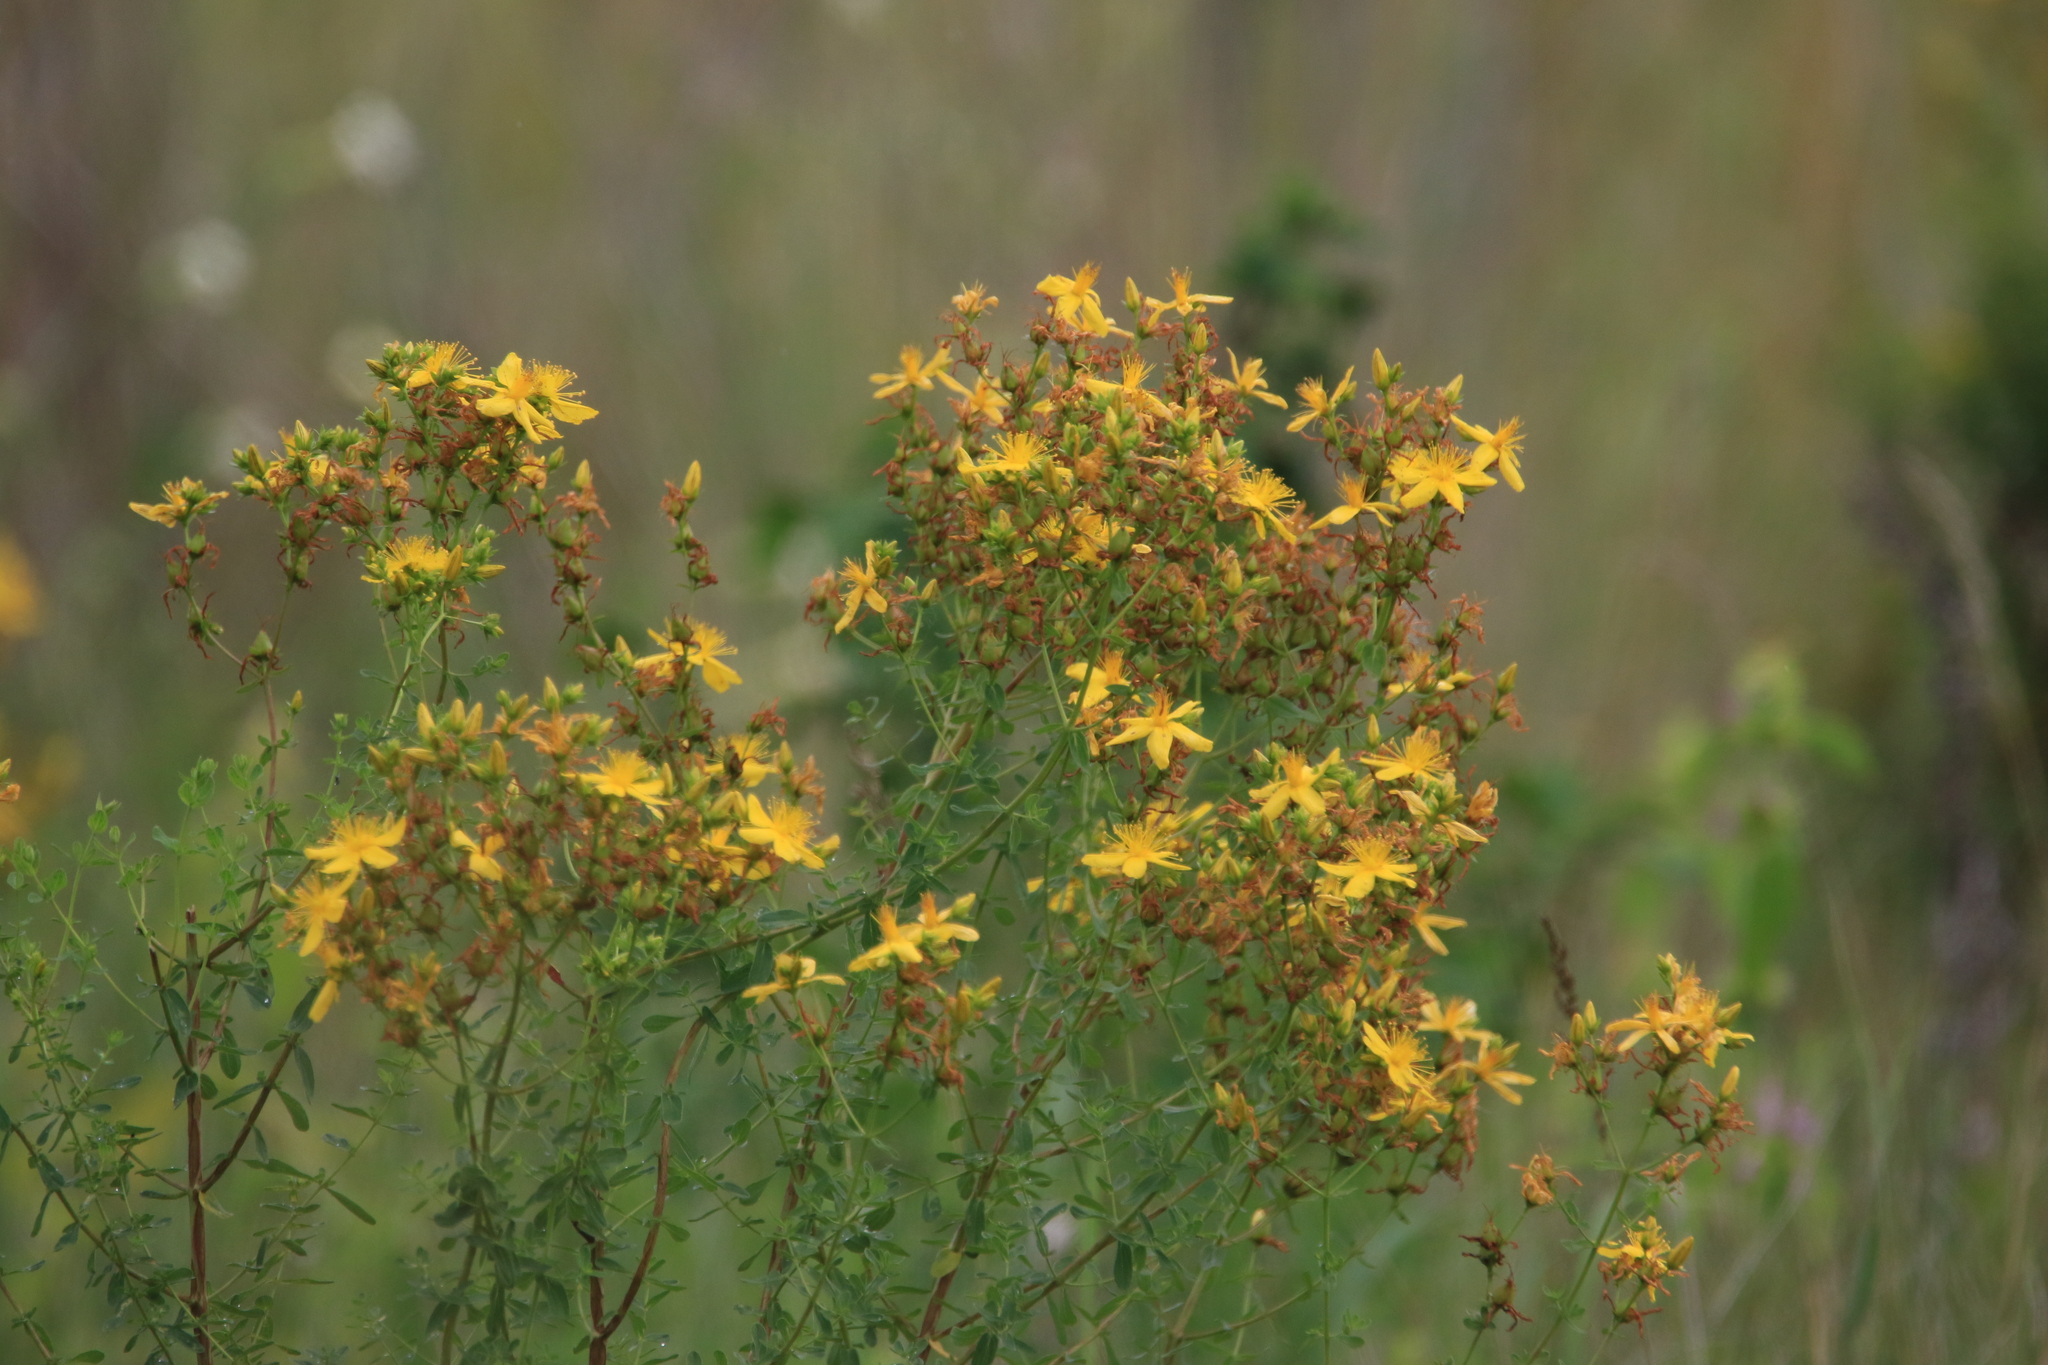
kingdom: Plantae
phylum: Tracheophyta
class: Magnoliopsida
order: Malpighiales
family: Hypericaceae
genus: Hypericum
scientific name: Hypericum perforatum
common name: Common st. johnswort
